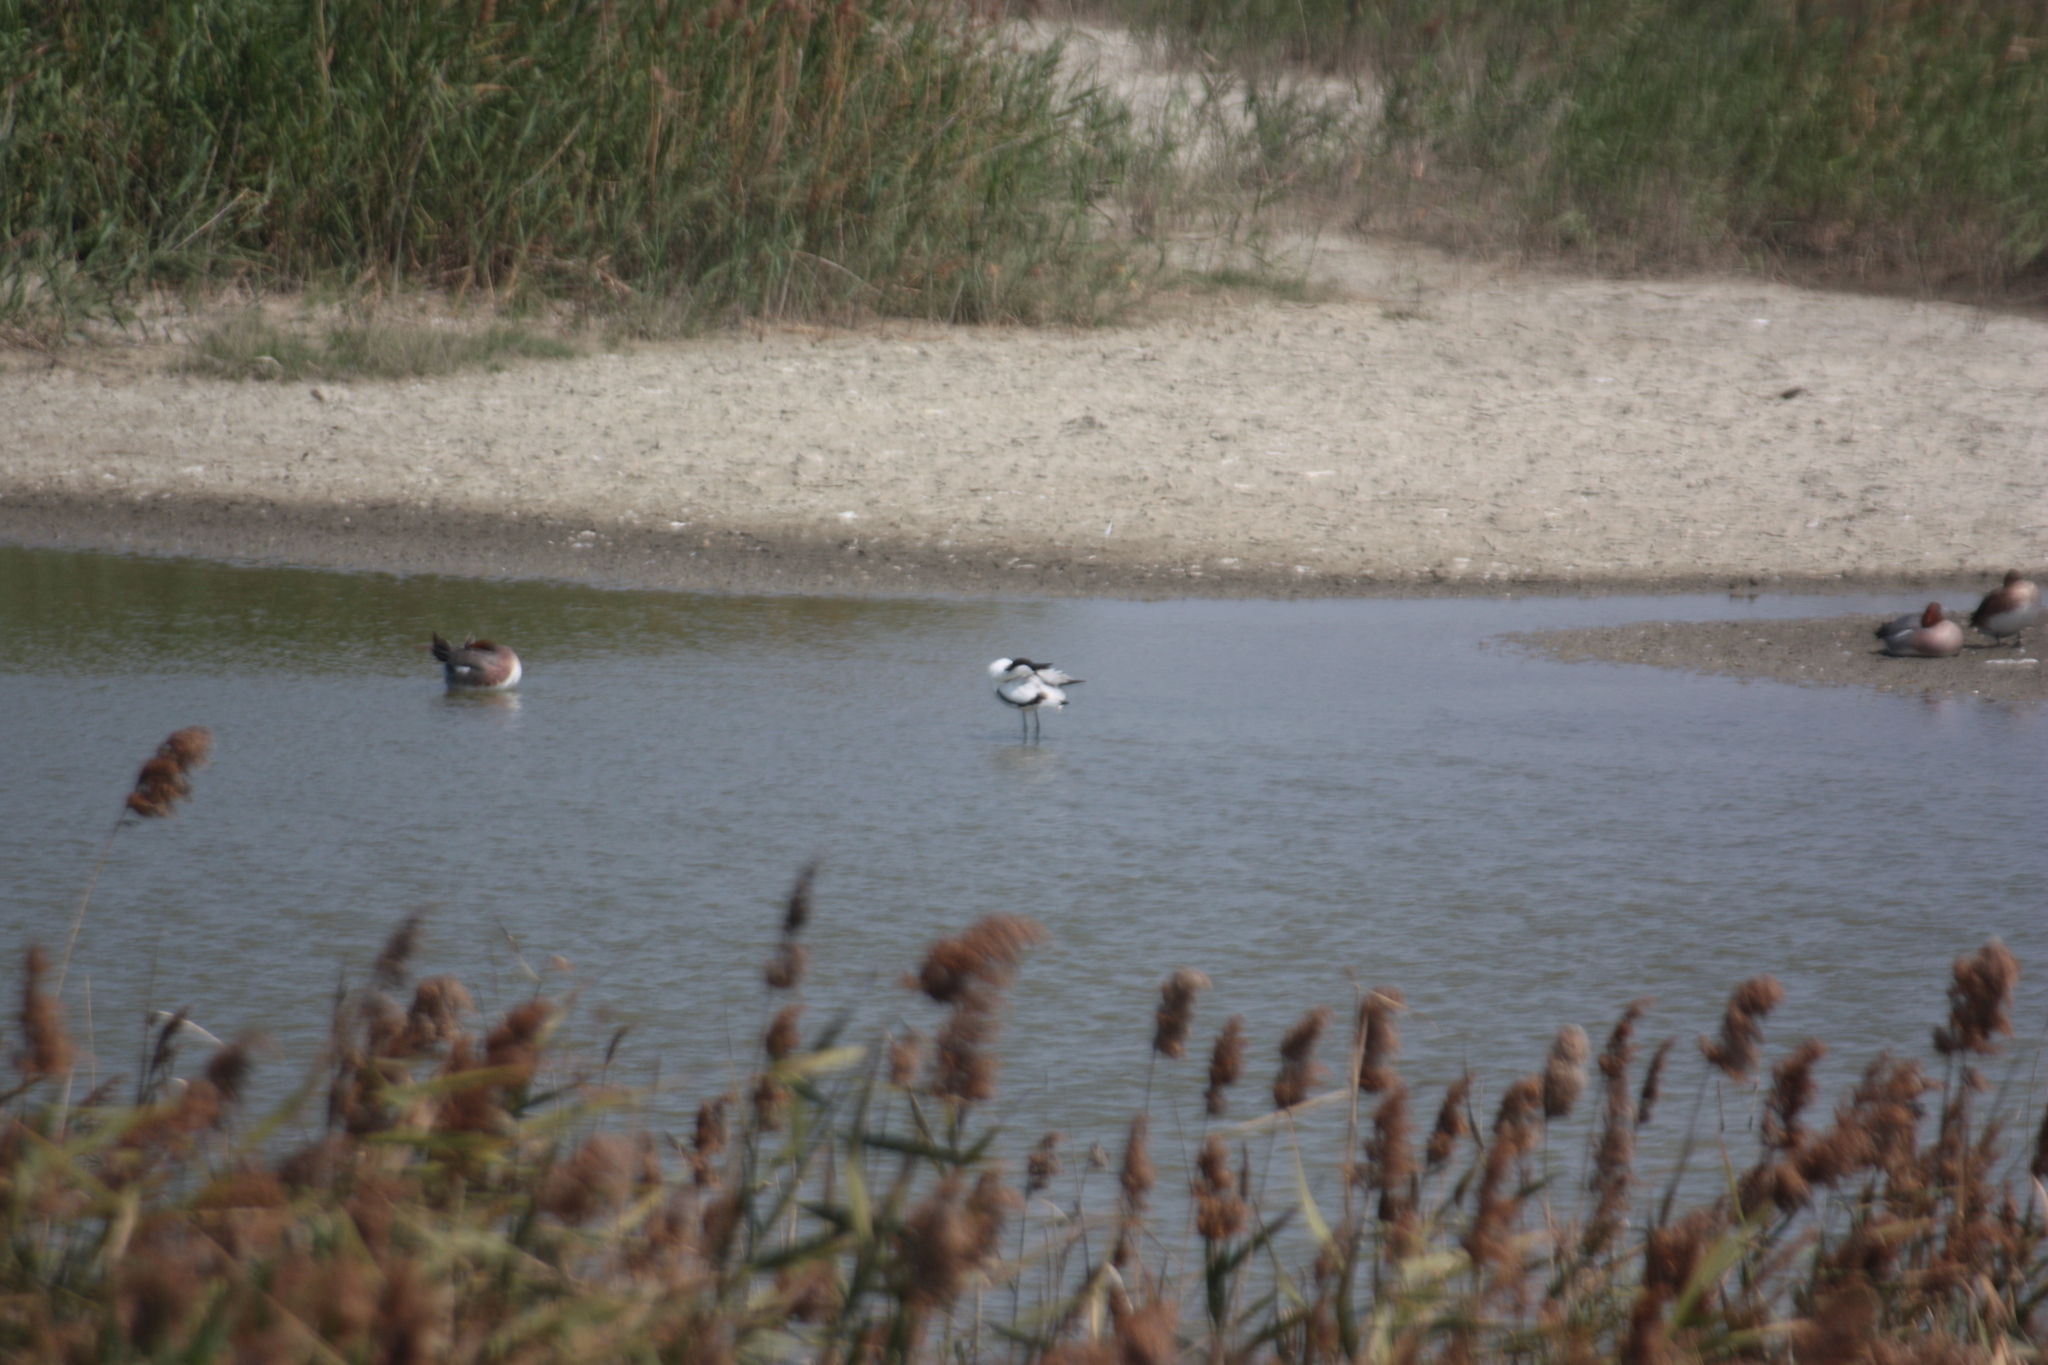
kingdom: Animalia
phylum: Chordata
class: Aves
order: Charadriiformes
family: Recurvirostridae
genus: Recurvirostra
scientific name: Recurvirostra avosetta
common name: Pied avocet
